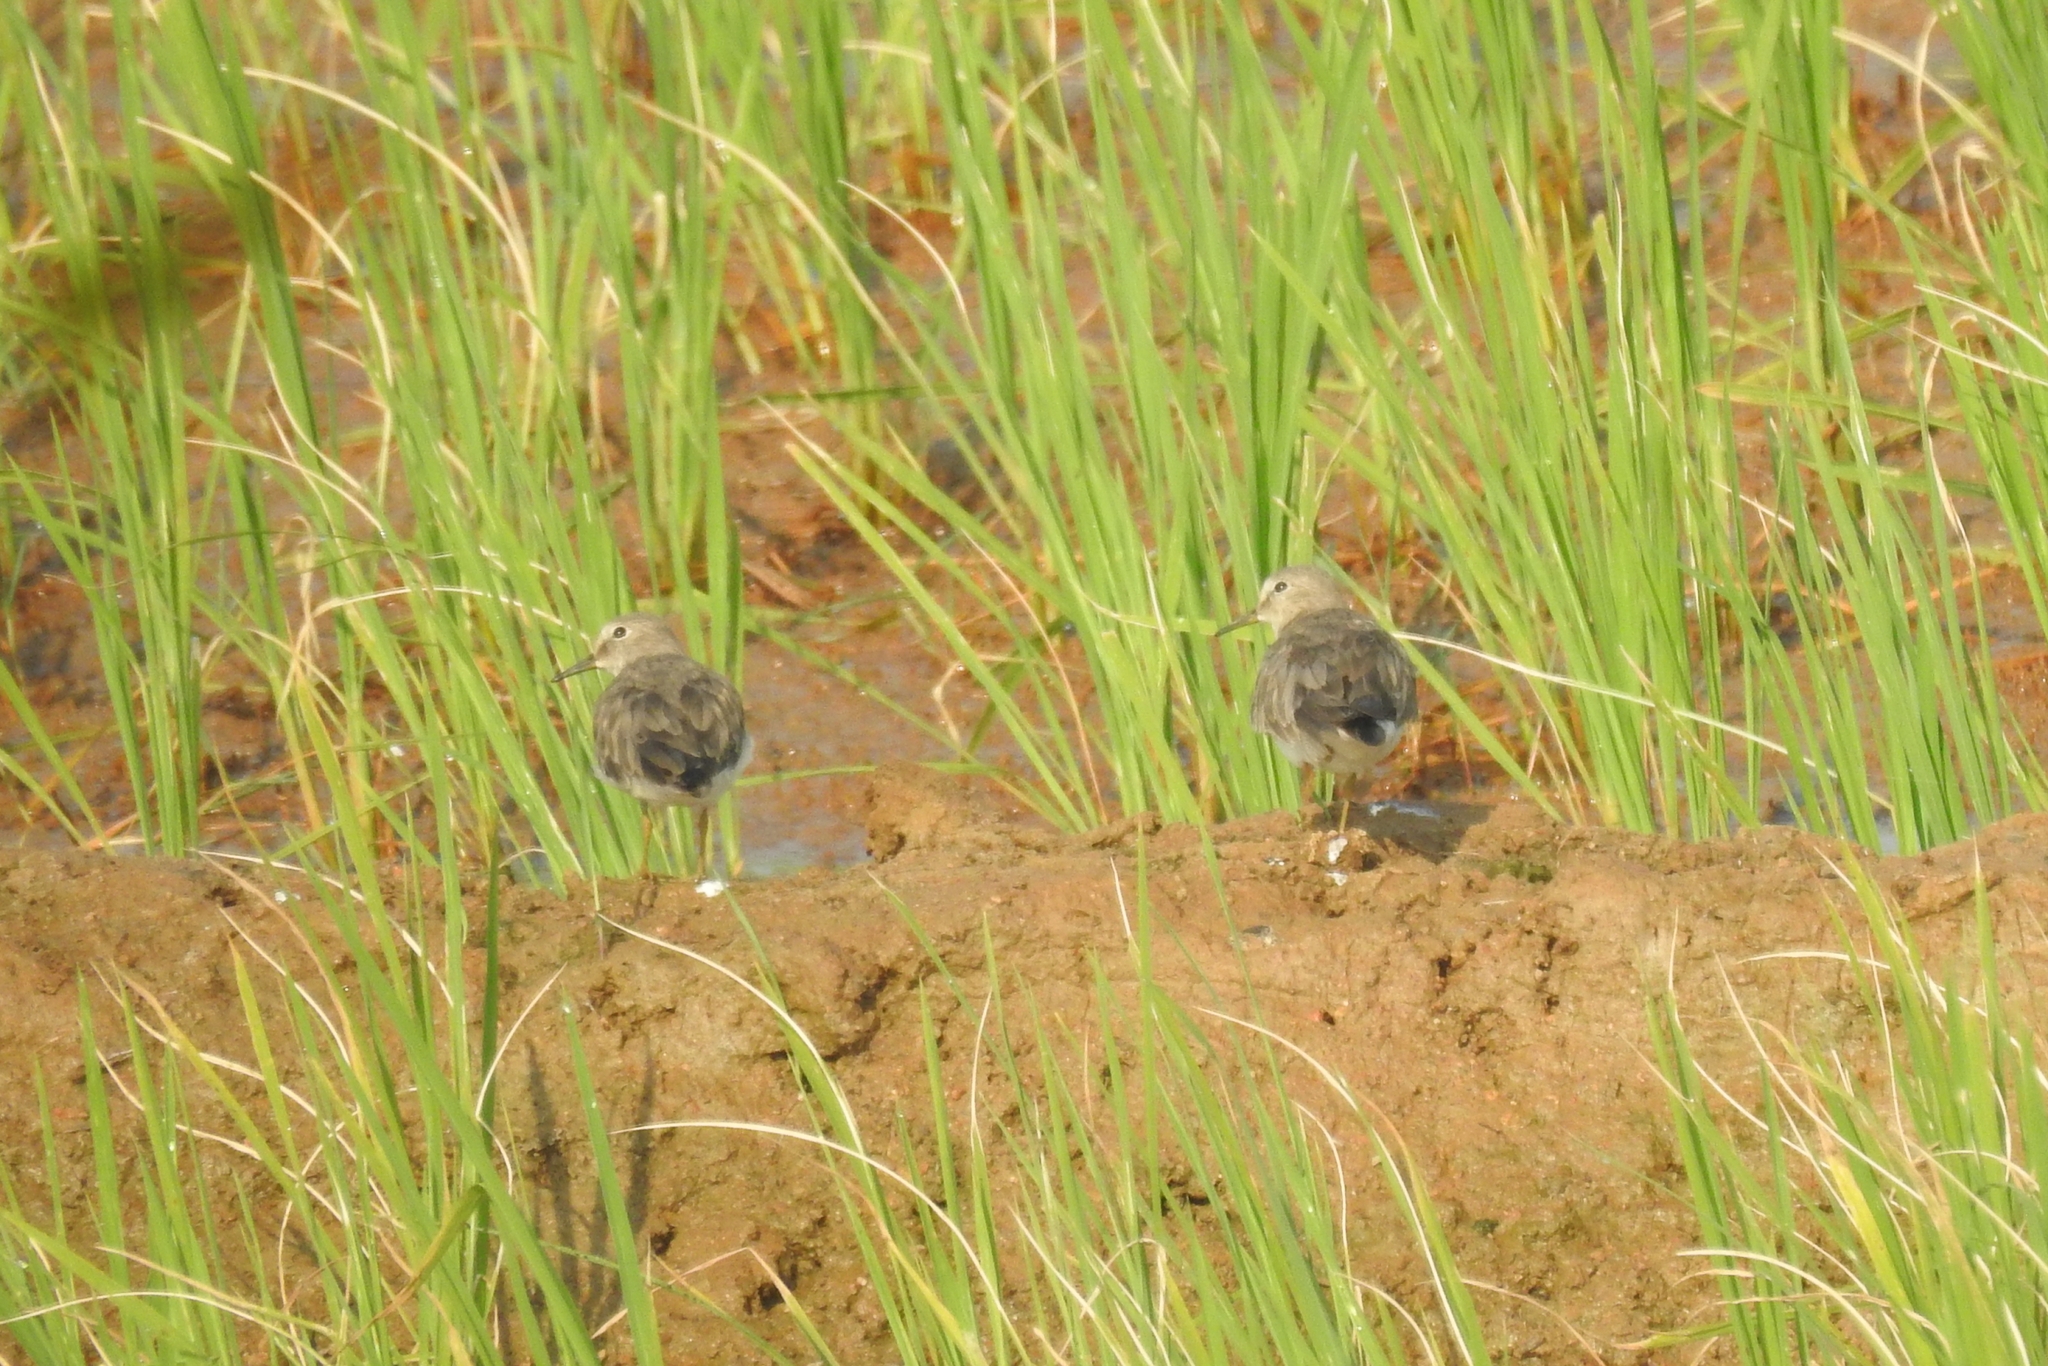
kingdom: Animalia
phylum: Chordata
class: Aves
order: Charadriiformes
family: Scolopacidae
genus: Calidris
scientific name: Calidris temminckii
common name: Temminck's stint
